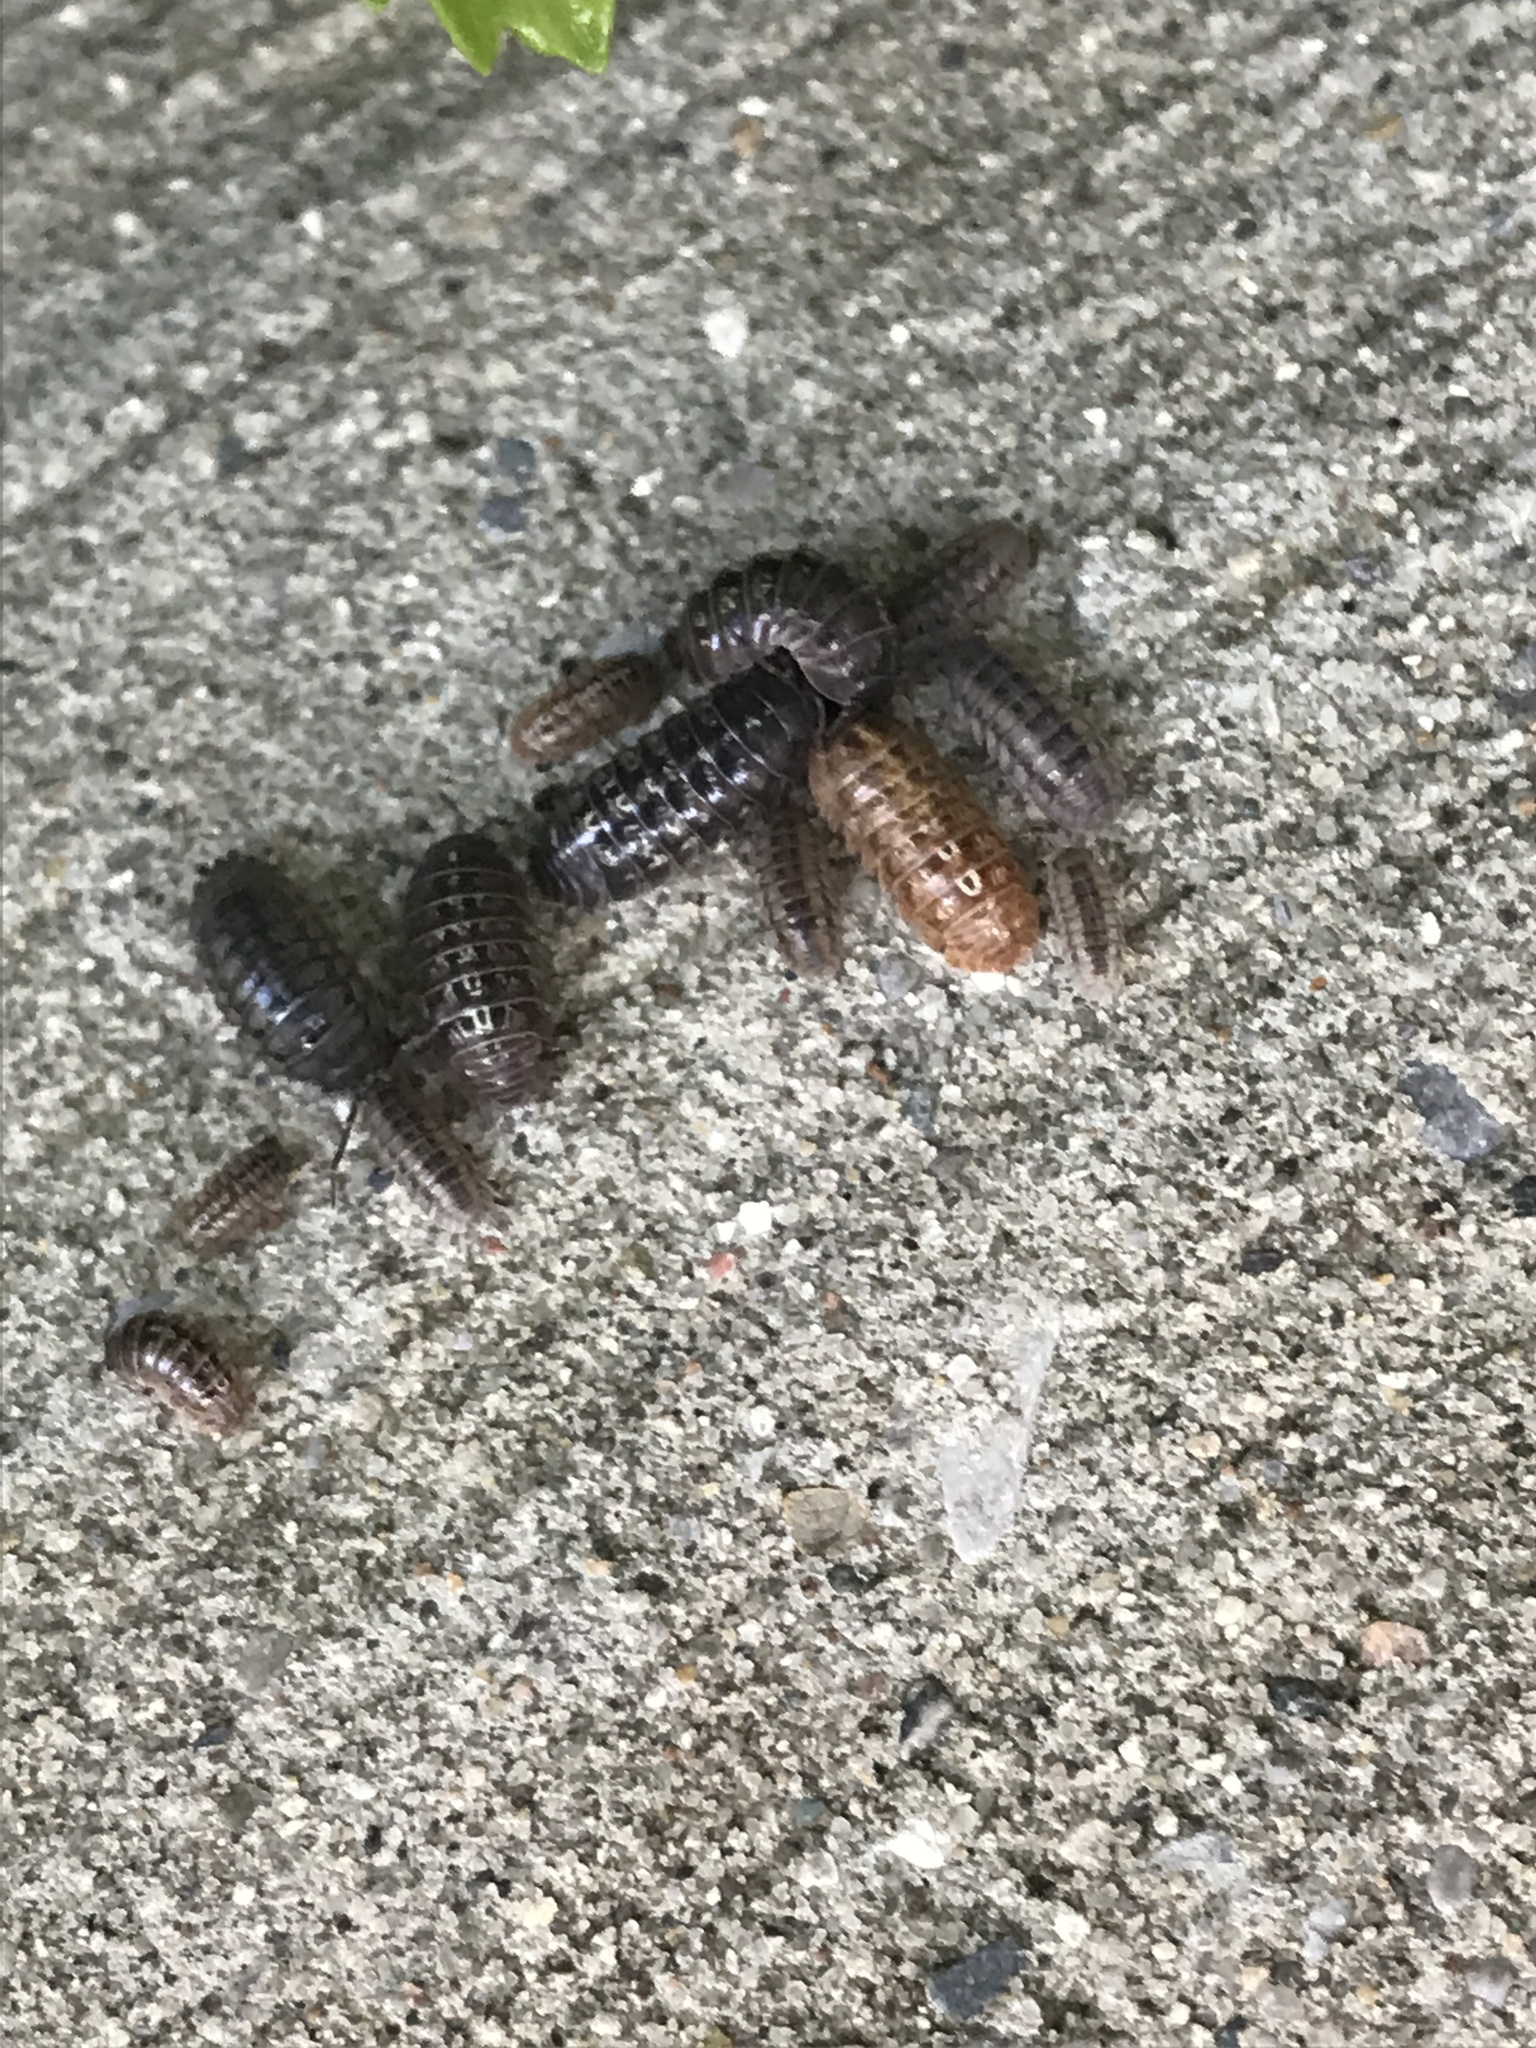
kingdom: Animalia
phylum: Arthropoda
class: Malacostraca
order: Isopoda
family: Armadillidiidae
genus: Armadillidium
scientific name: Armadillidium vulgare
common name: Common pill woodlouse
